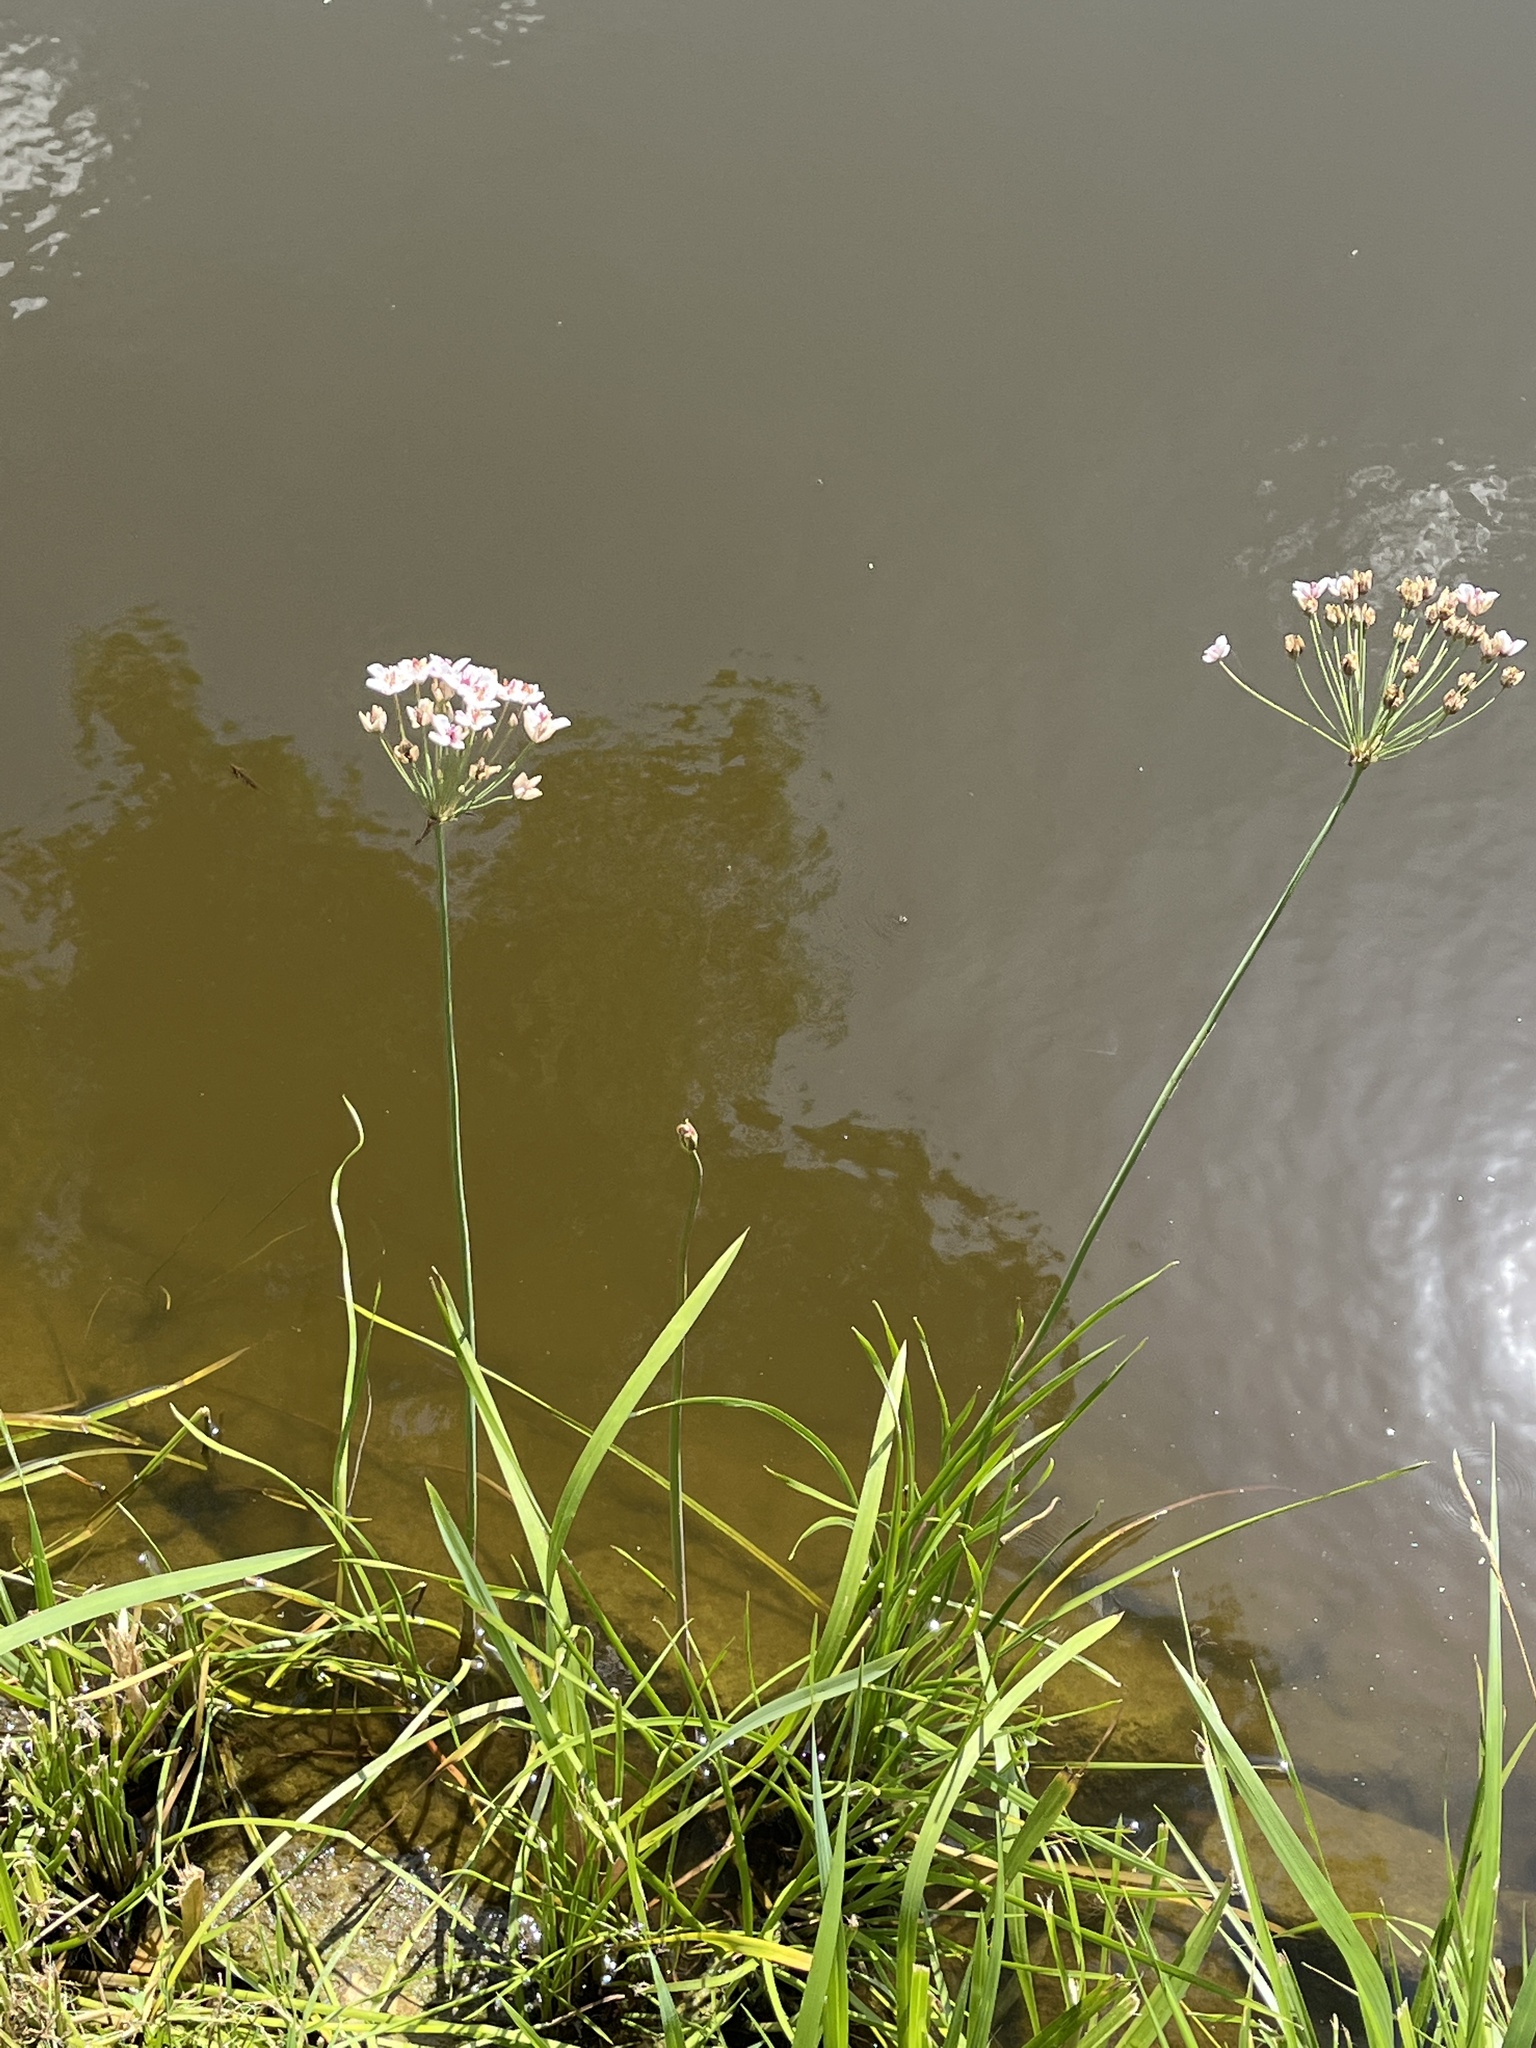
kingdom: Plantae
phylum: Tracheophyta
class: Liliopsida
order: Alismatales
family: Butomaceae
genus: Butomus
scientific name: Butomus umbellatus
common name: Flowering-rush
